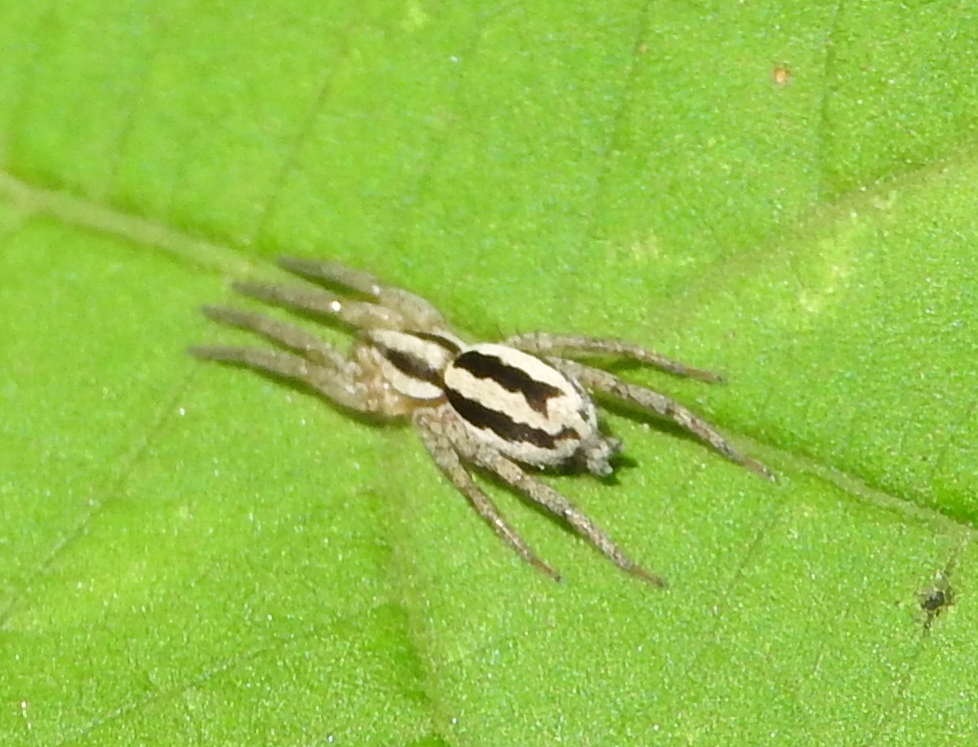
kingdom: Animalia
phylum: Arthropoda
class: Arachnida
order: Araneae
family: Gnaphosidae
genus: Cesonia
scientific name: Cesonia
